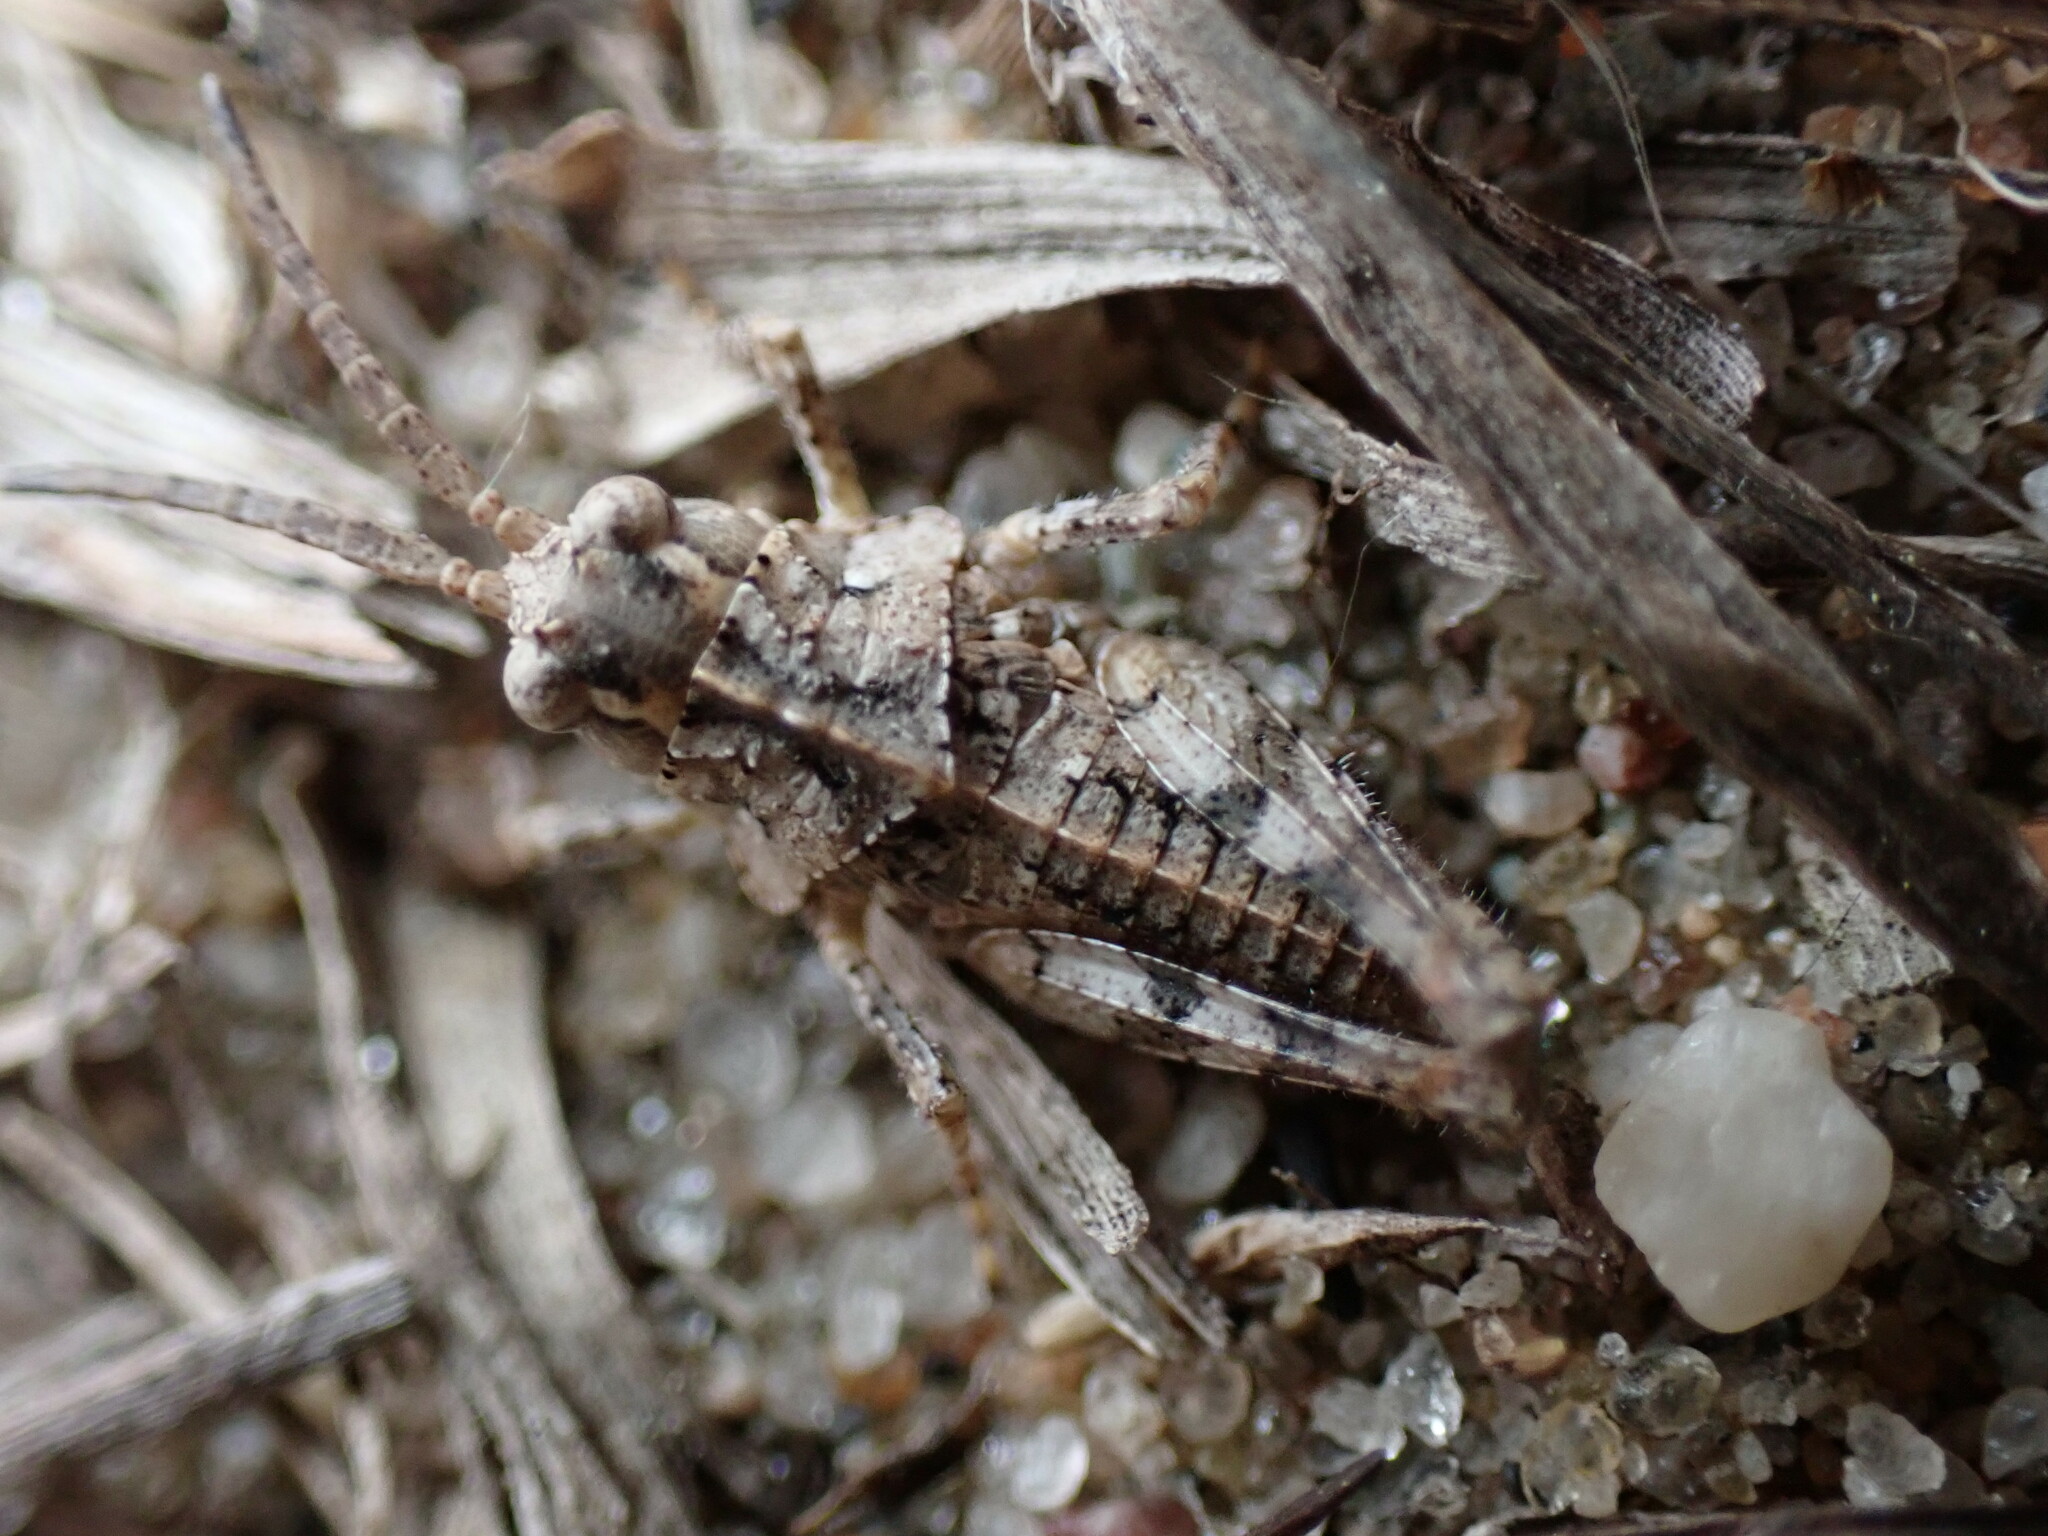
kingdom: Animalia
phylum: Arthropoda
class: Insecta
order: Orthoptera
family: Acrididae
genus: Psinidia
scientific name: Psinidia fenestralis
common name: Long-horned locust
